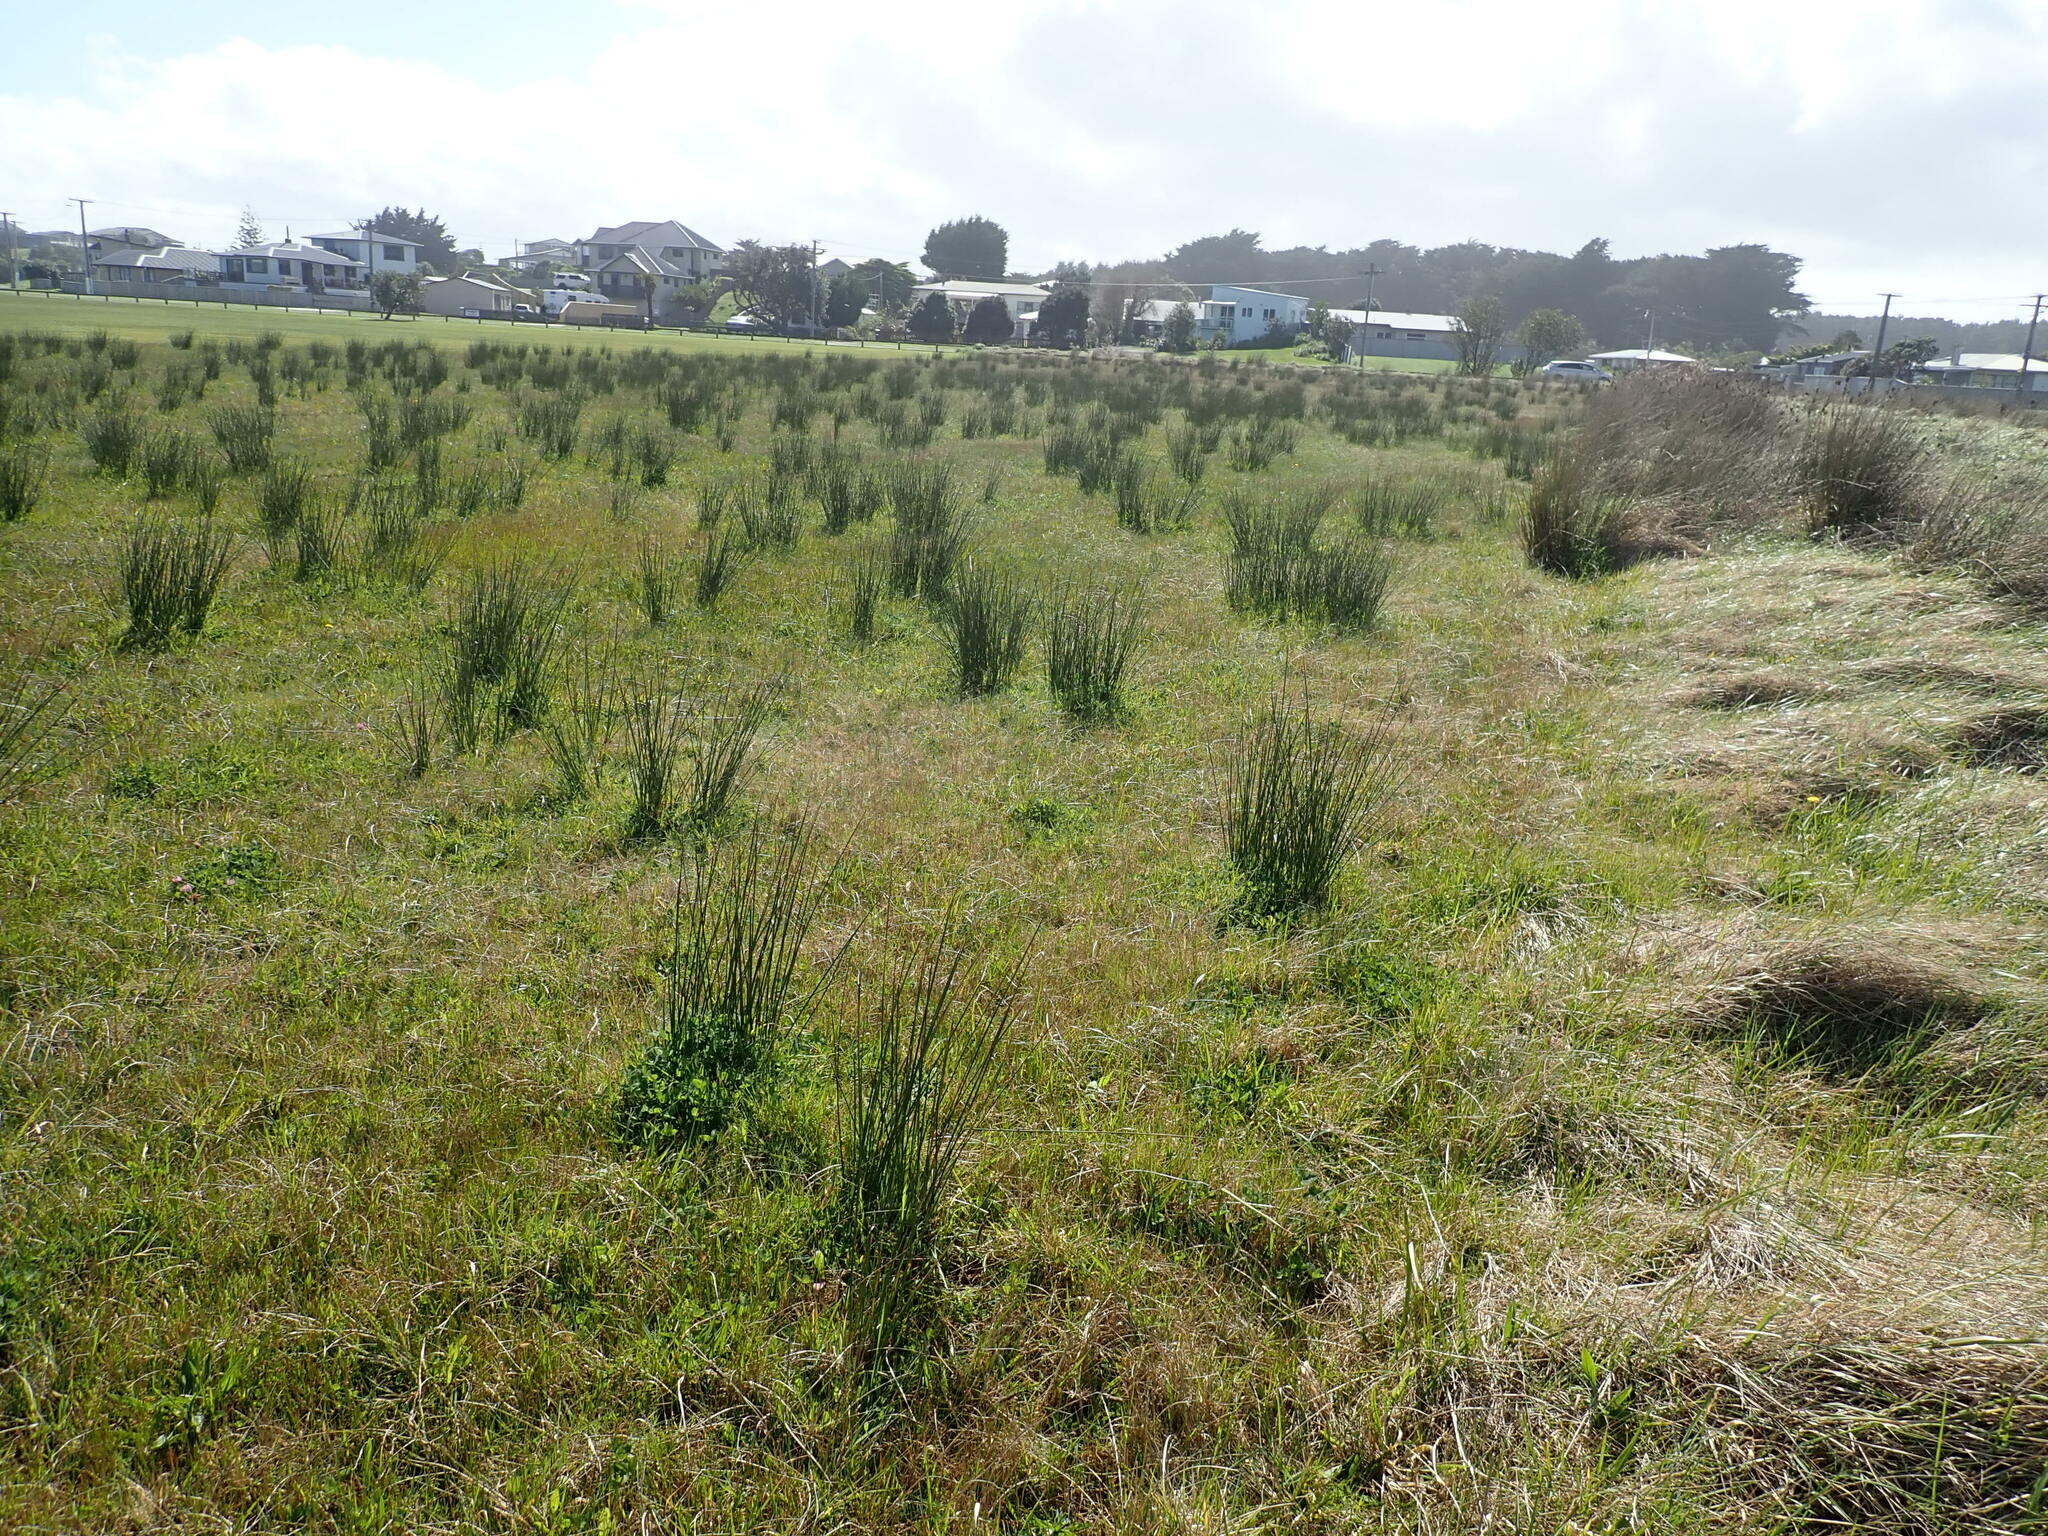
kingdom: Plantae
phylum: Tracheophyta
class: Liliopsida
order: Poales
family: Juncaceae
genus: Juncus
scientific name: Juncus acutus
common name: Sharp rush
